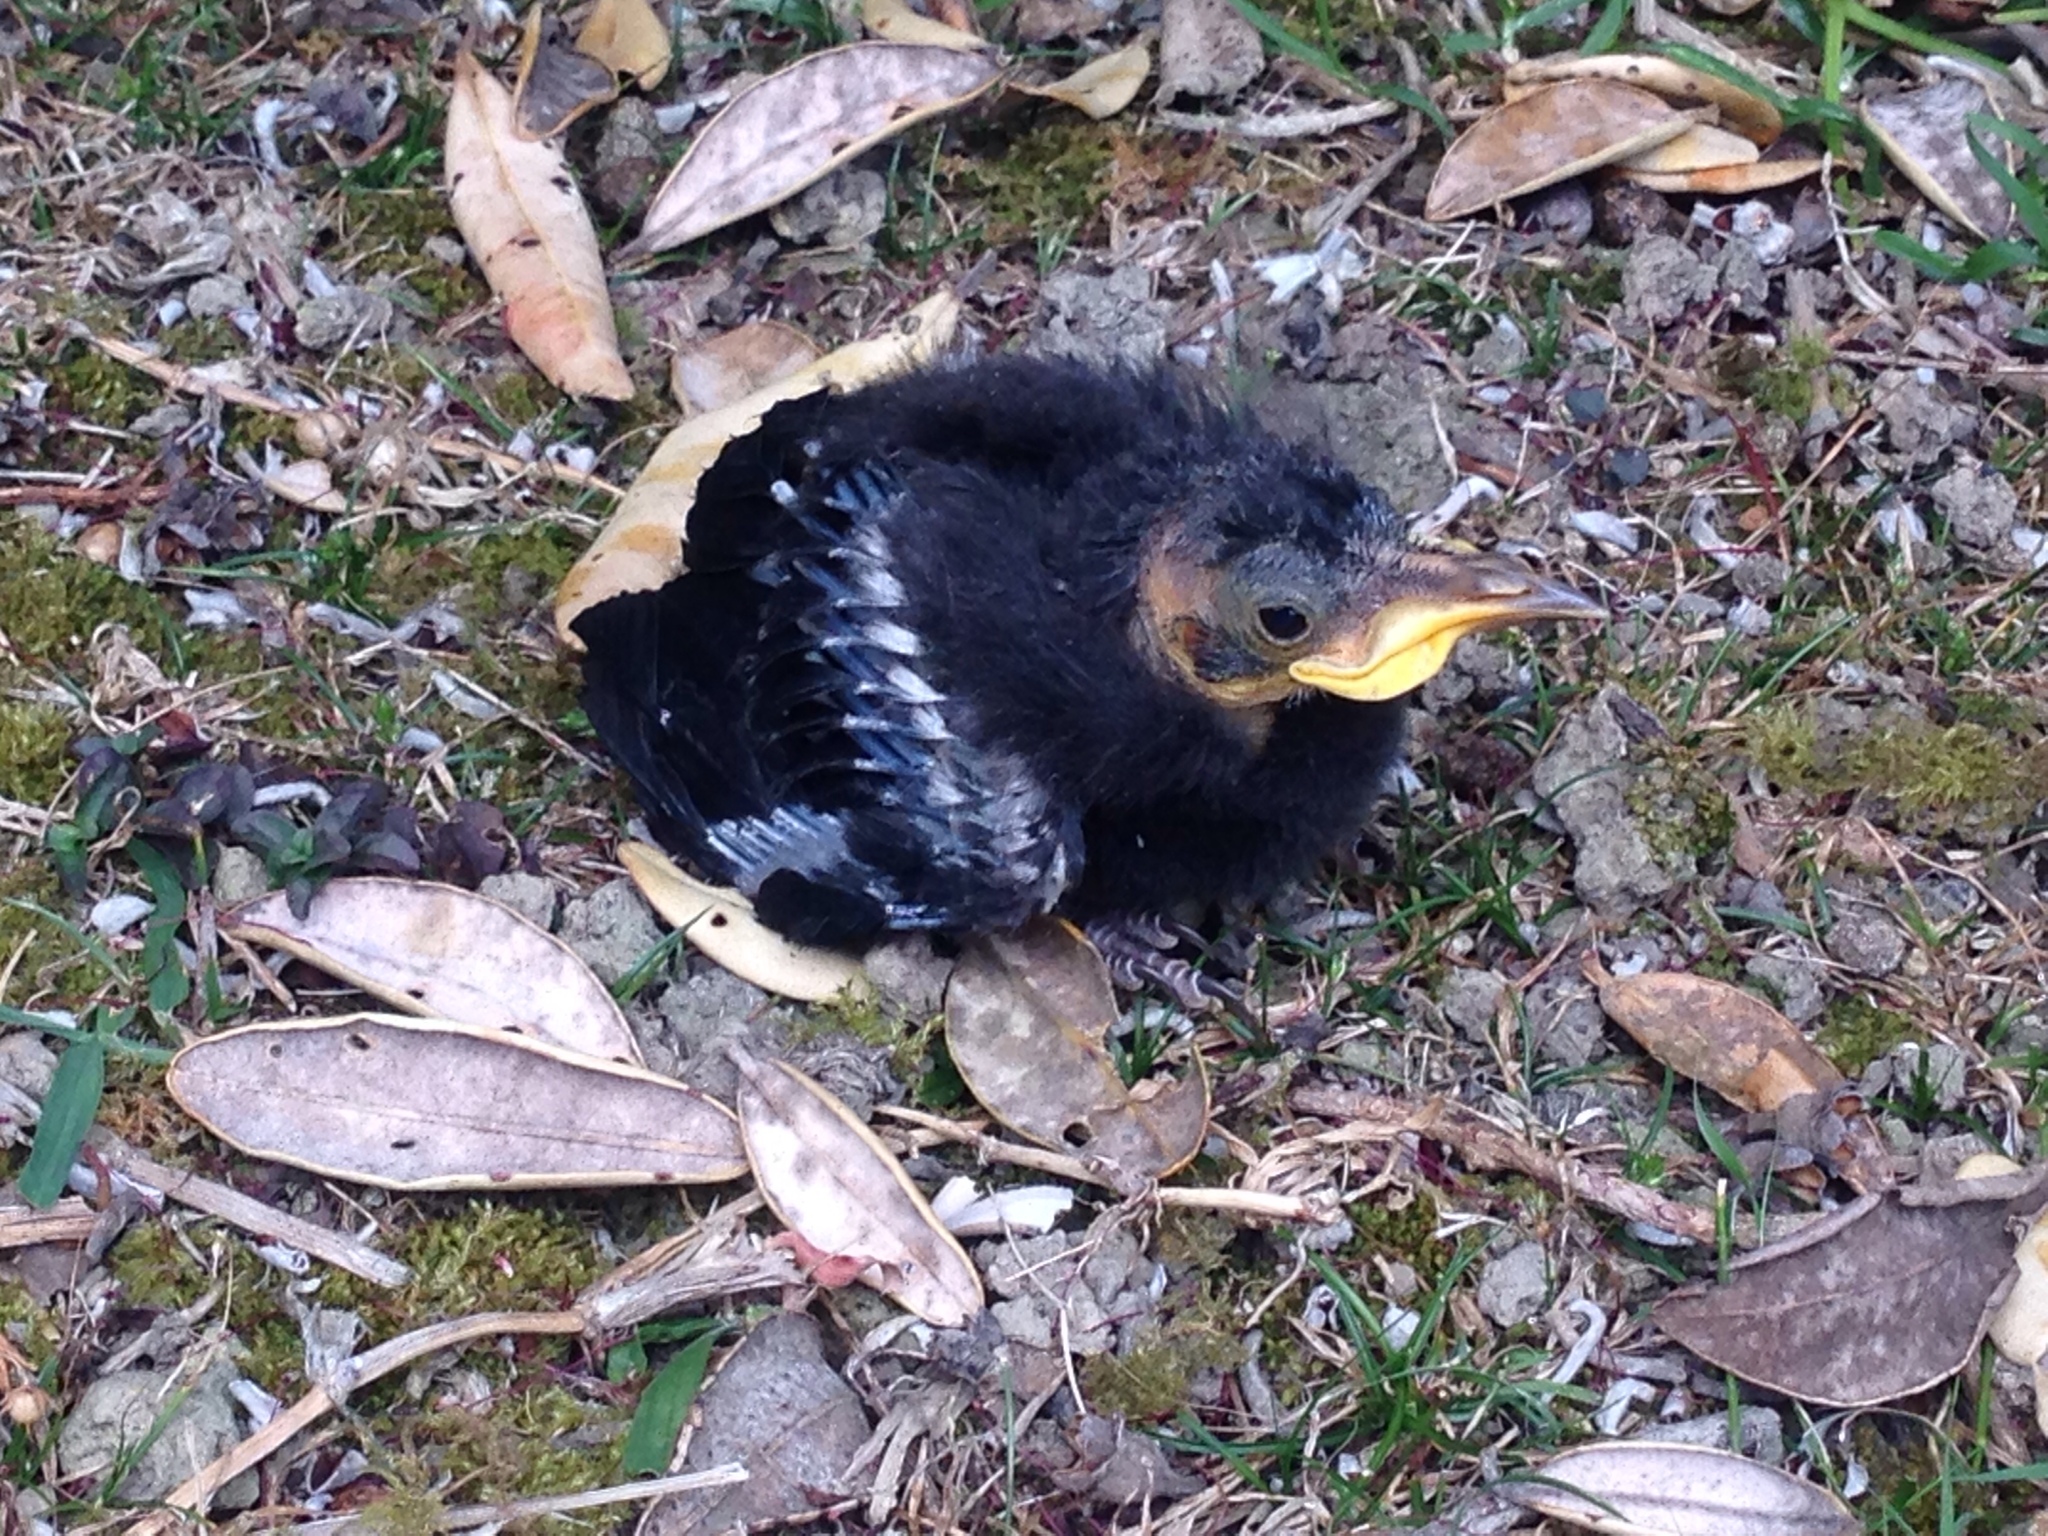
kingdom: Animalia
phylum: Chordata
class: Aves
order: Passeriformes
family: Meliphagidae
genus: Prosthemadera
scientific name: Prosthemadera novaeseelandiae
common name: Tui
